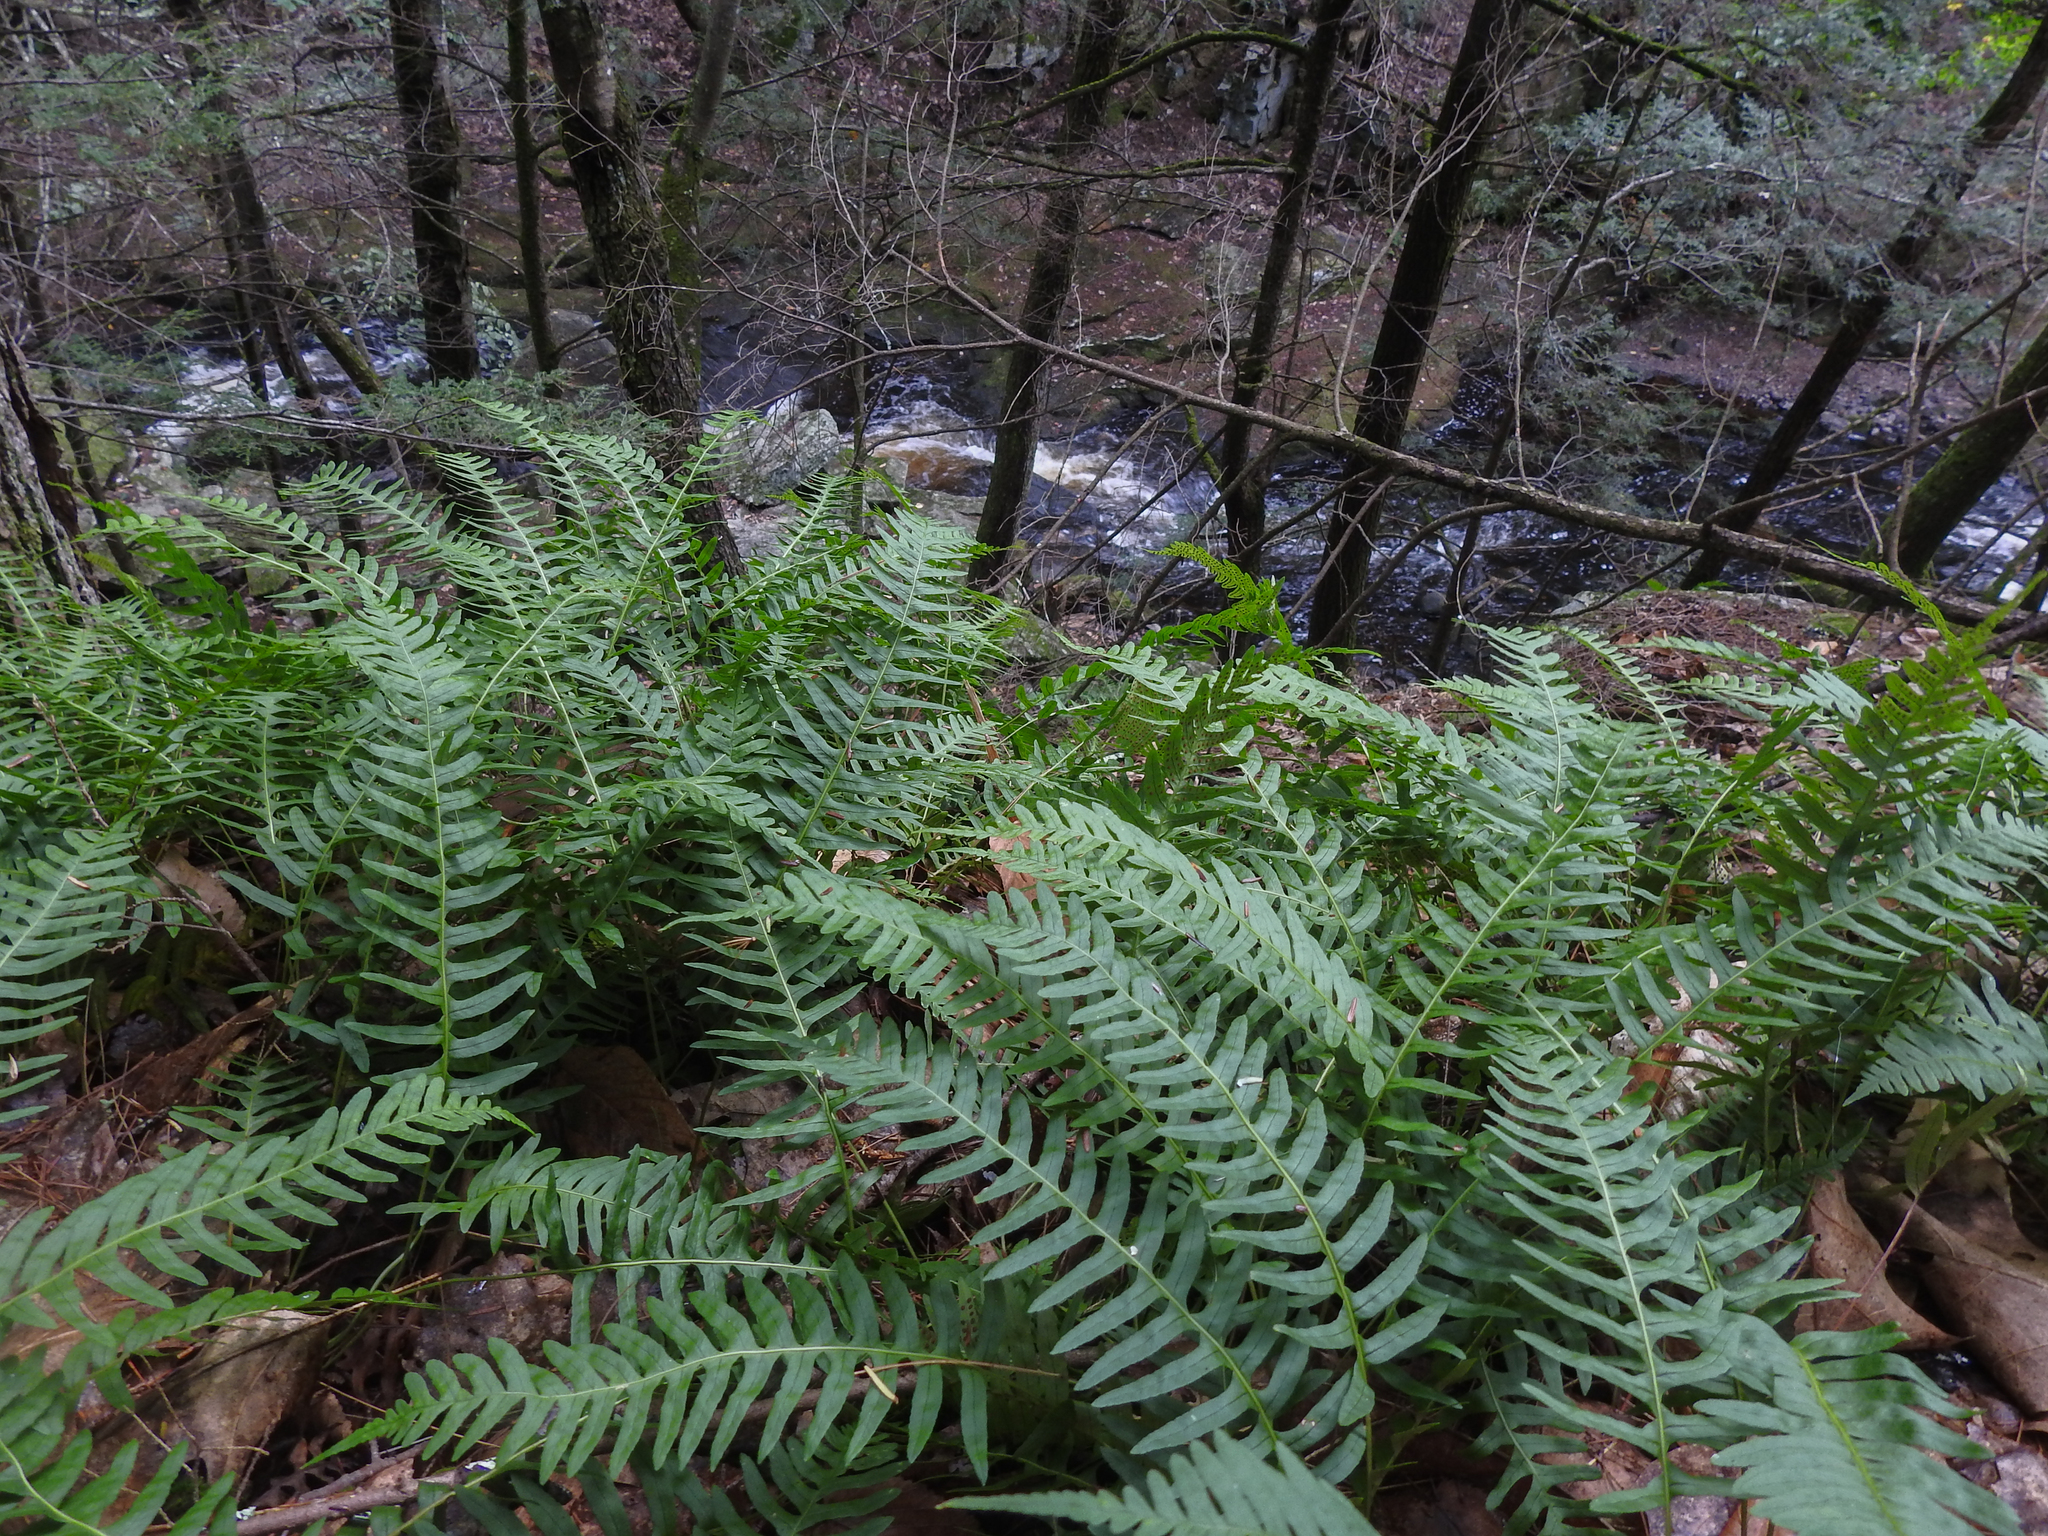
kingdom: Plantae
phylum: Tracheophyta
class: Polypodiopsida
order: Polypodiales
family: Polypodiaceae
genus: Polypodium
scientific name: Polypodium virginianum
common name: American wall fern
